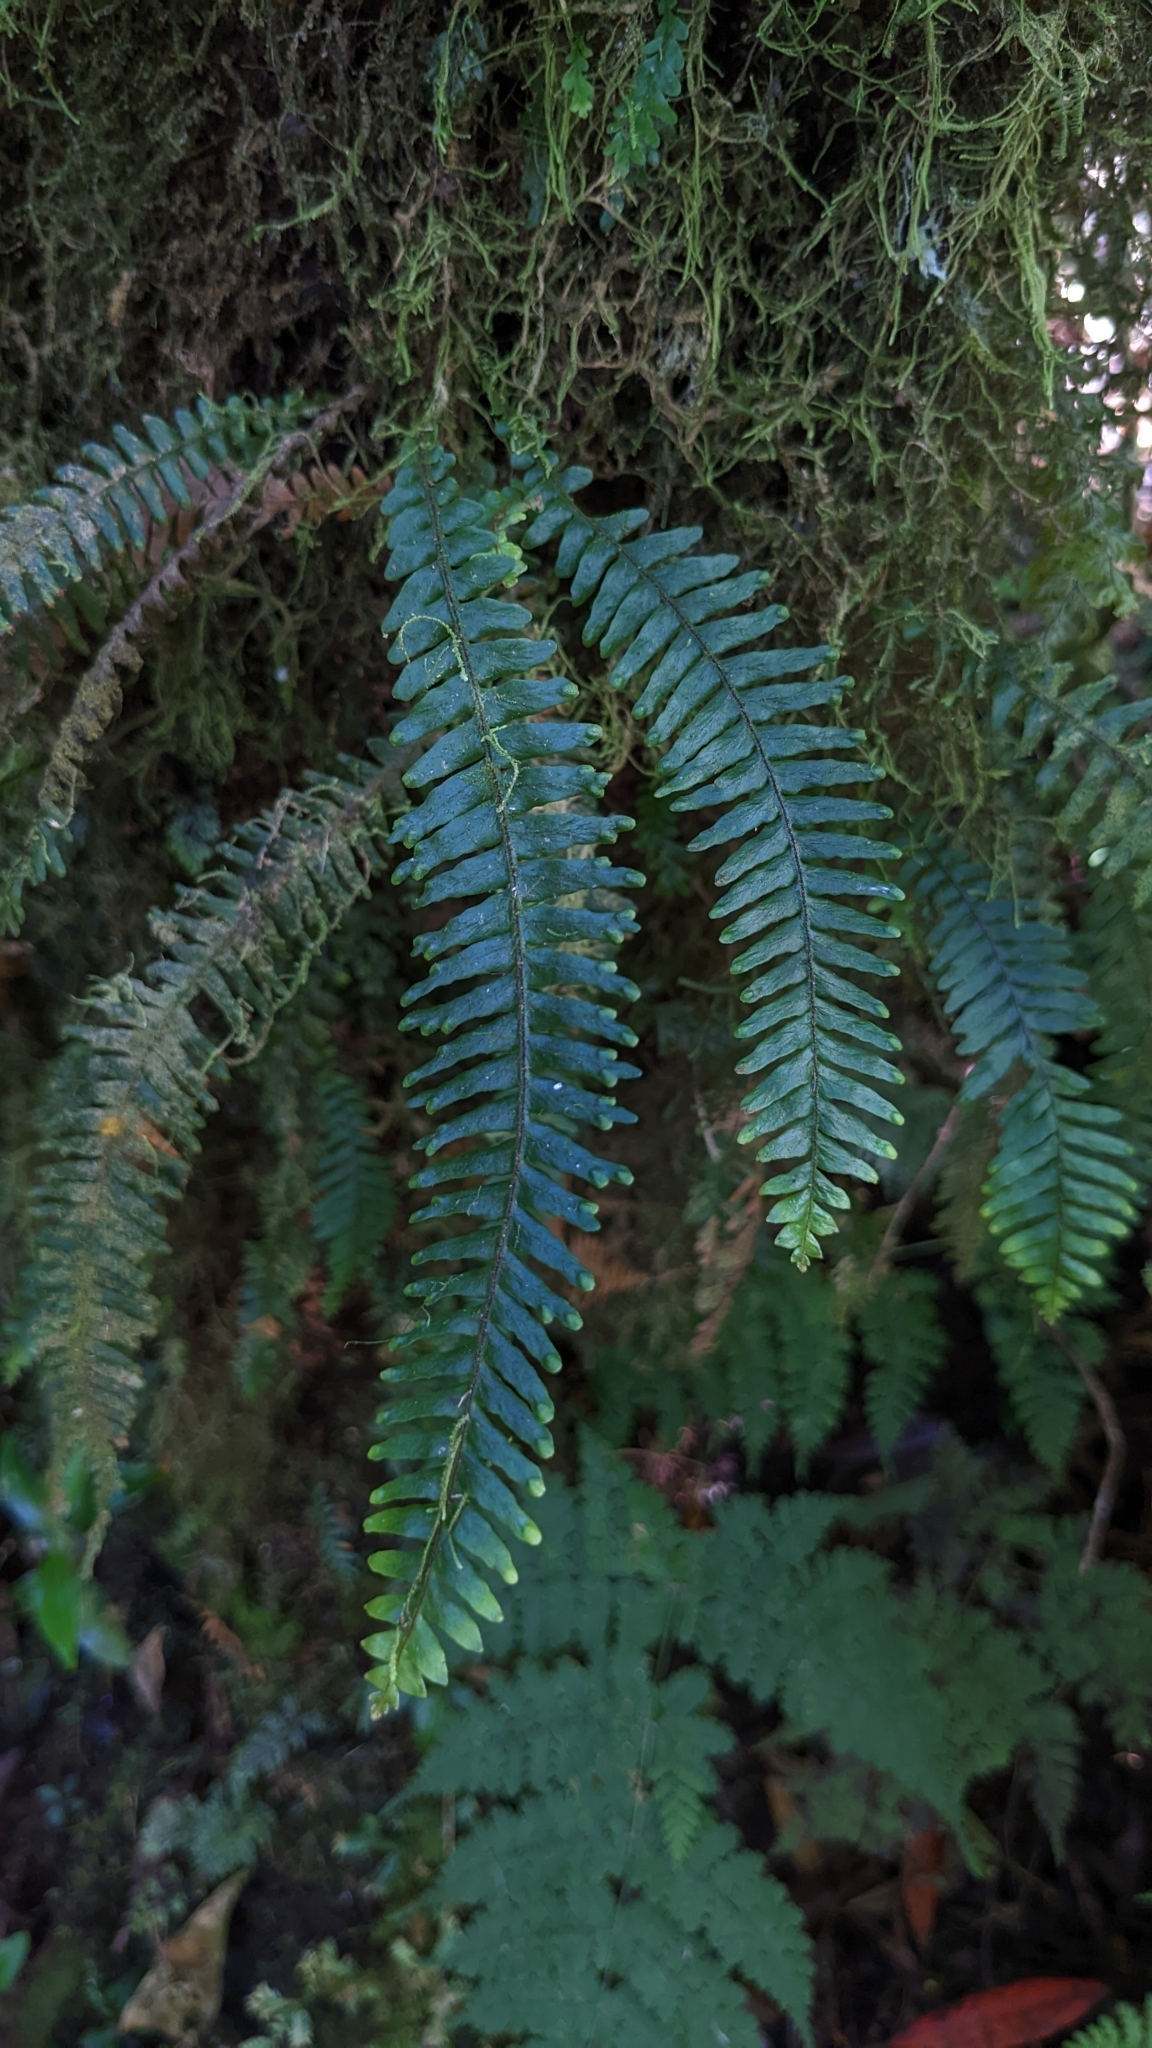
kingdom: Plantae
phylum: Tracheophyta
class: Polypodiopsida
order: Polypodiales
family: Polypodiaceae
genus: Prosaptia
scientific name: Prosaptia formosana
